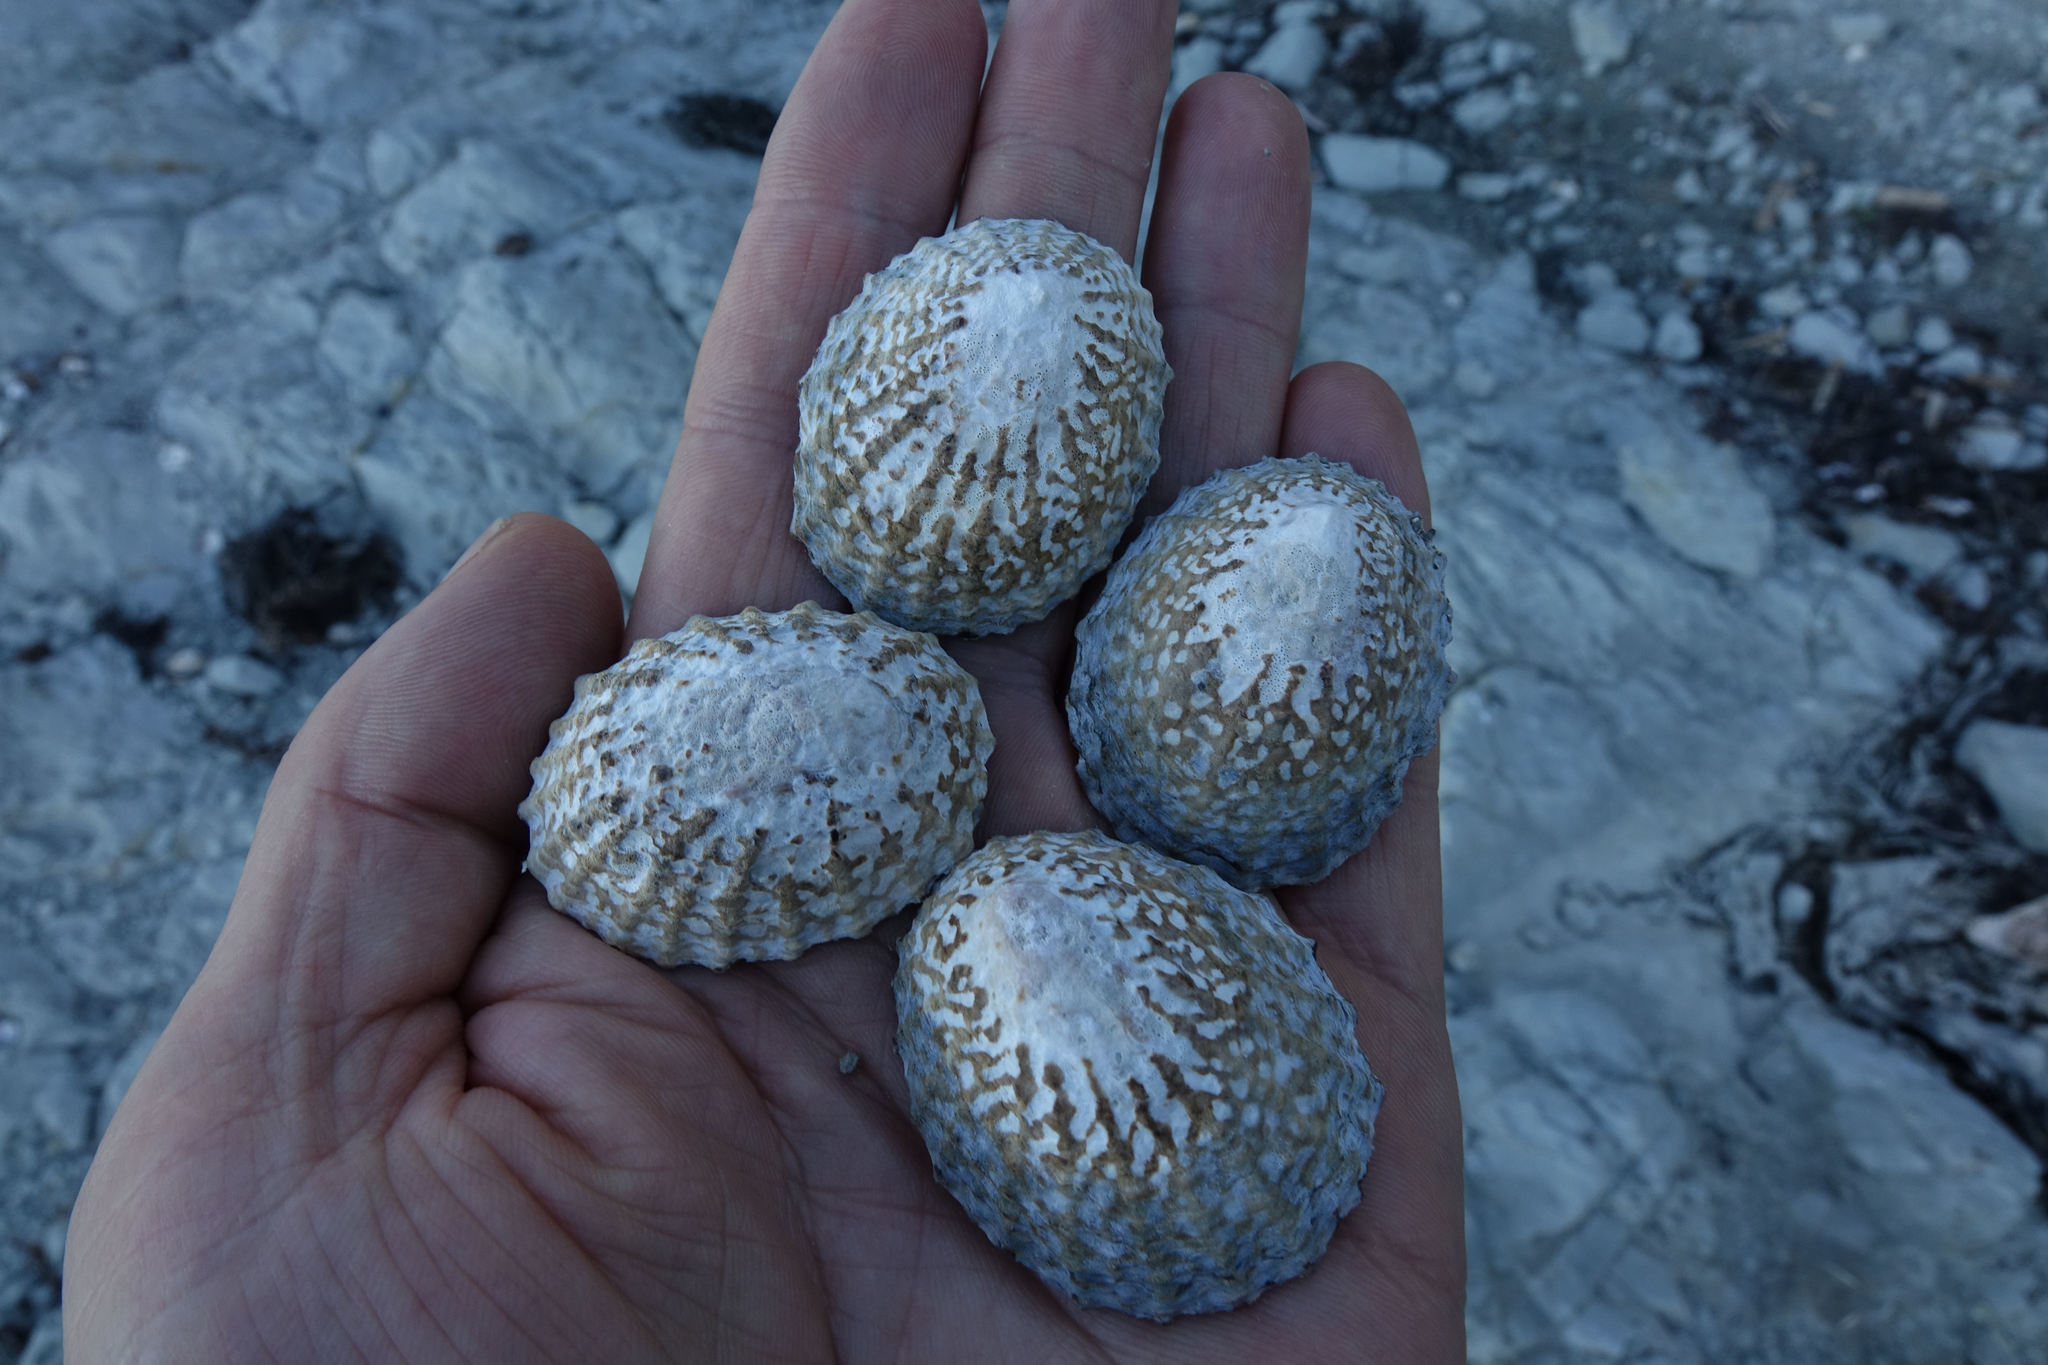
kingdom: Animalia
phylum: Mollusca
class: Gastropoda
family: Nacellidae
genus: Cellana
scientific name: Cellana denticulata
